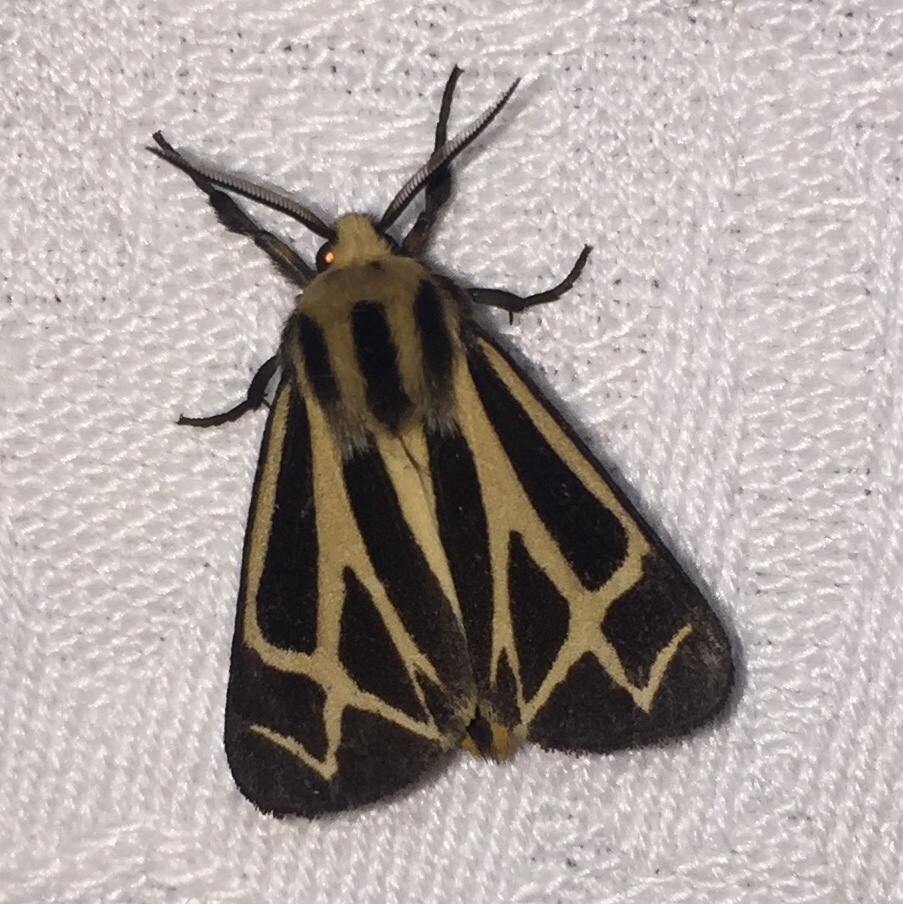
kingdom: Animalia
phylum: Arthropoda
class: Insecta
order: Lepidoptera
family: Erebidae
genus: Apantesis
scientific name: Apantesis phalerata
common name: Harnessed tiger moth
